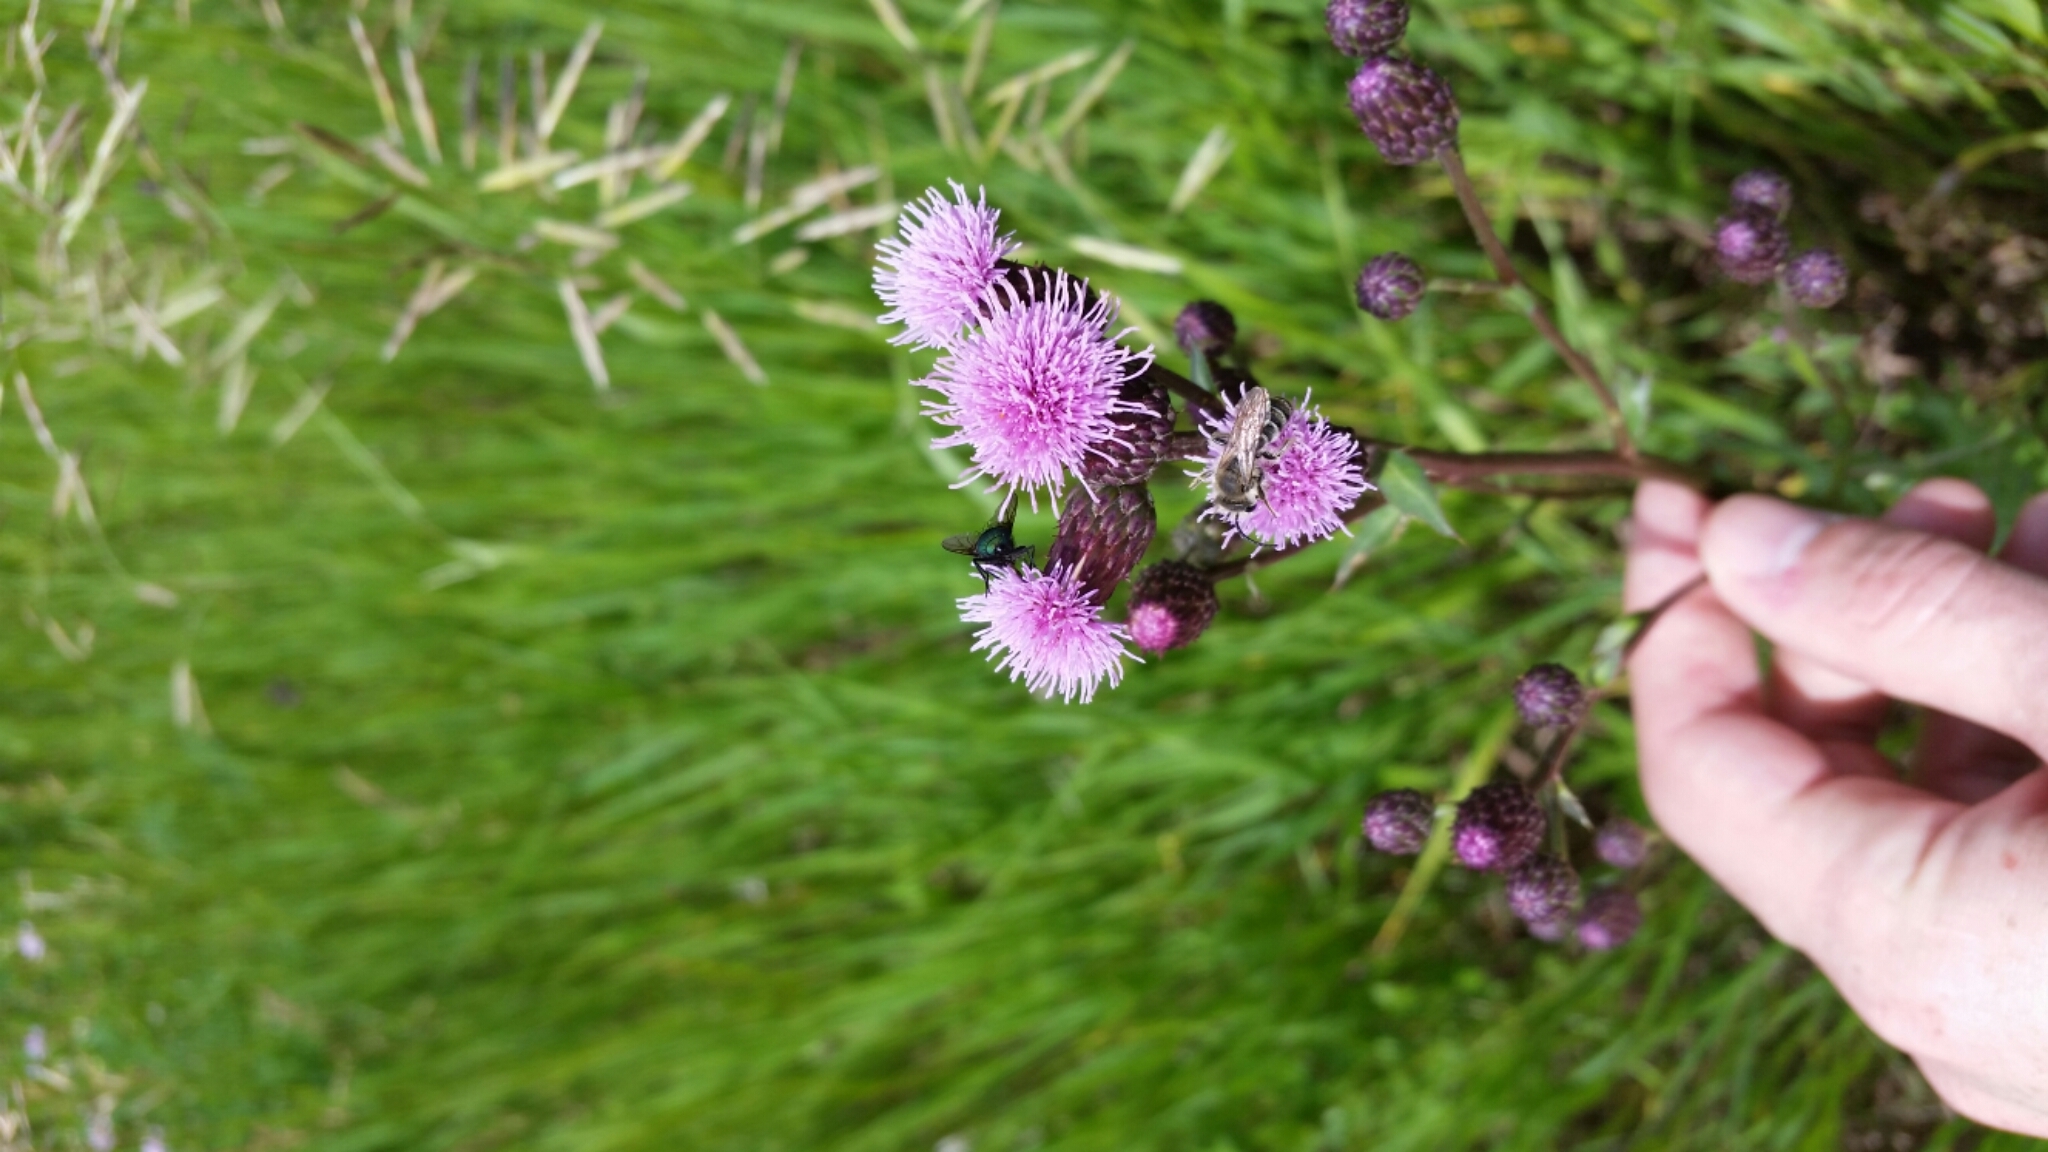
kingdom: Plantae
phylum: Tracheophyta
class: Magnoliopsida
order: Asterales
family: Asteraceae
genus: Cirsium
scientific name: Cirsium arvense
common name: Creeping thistle
